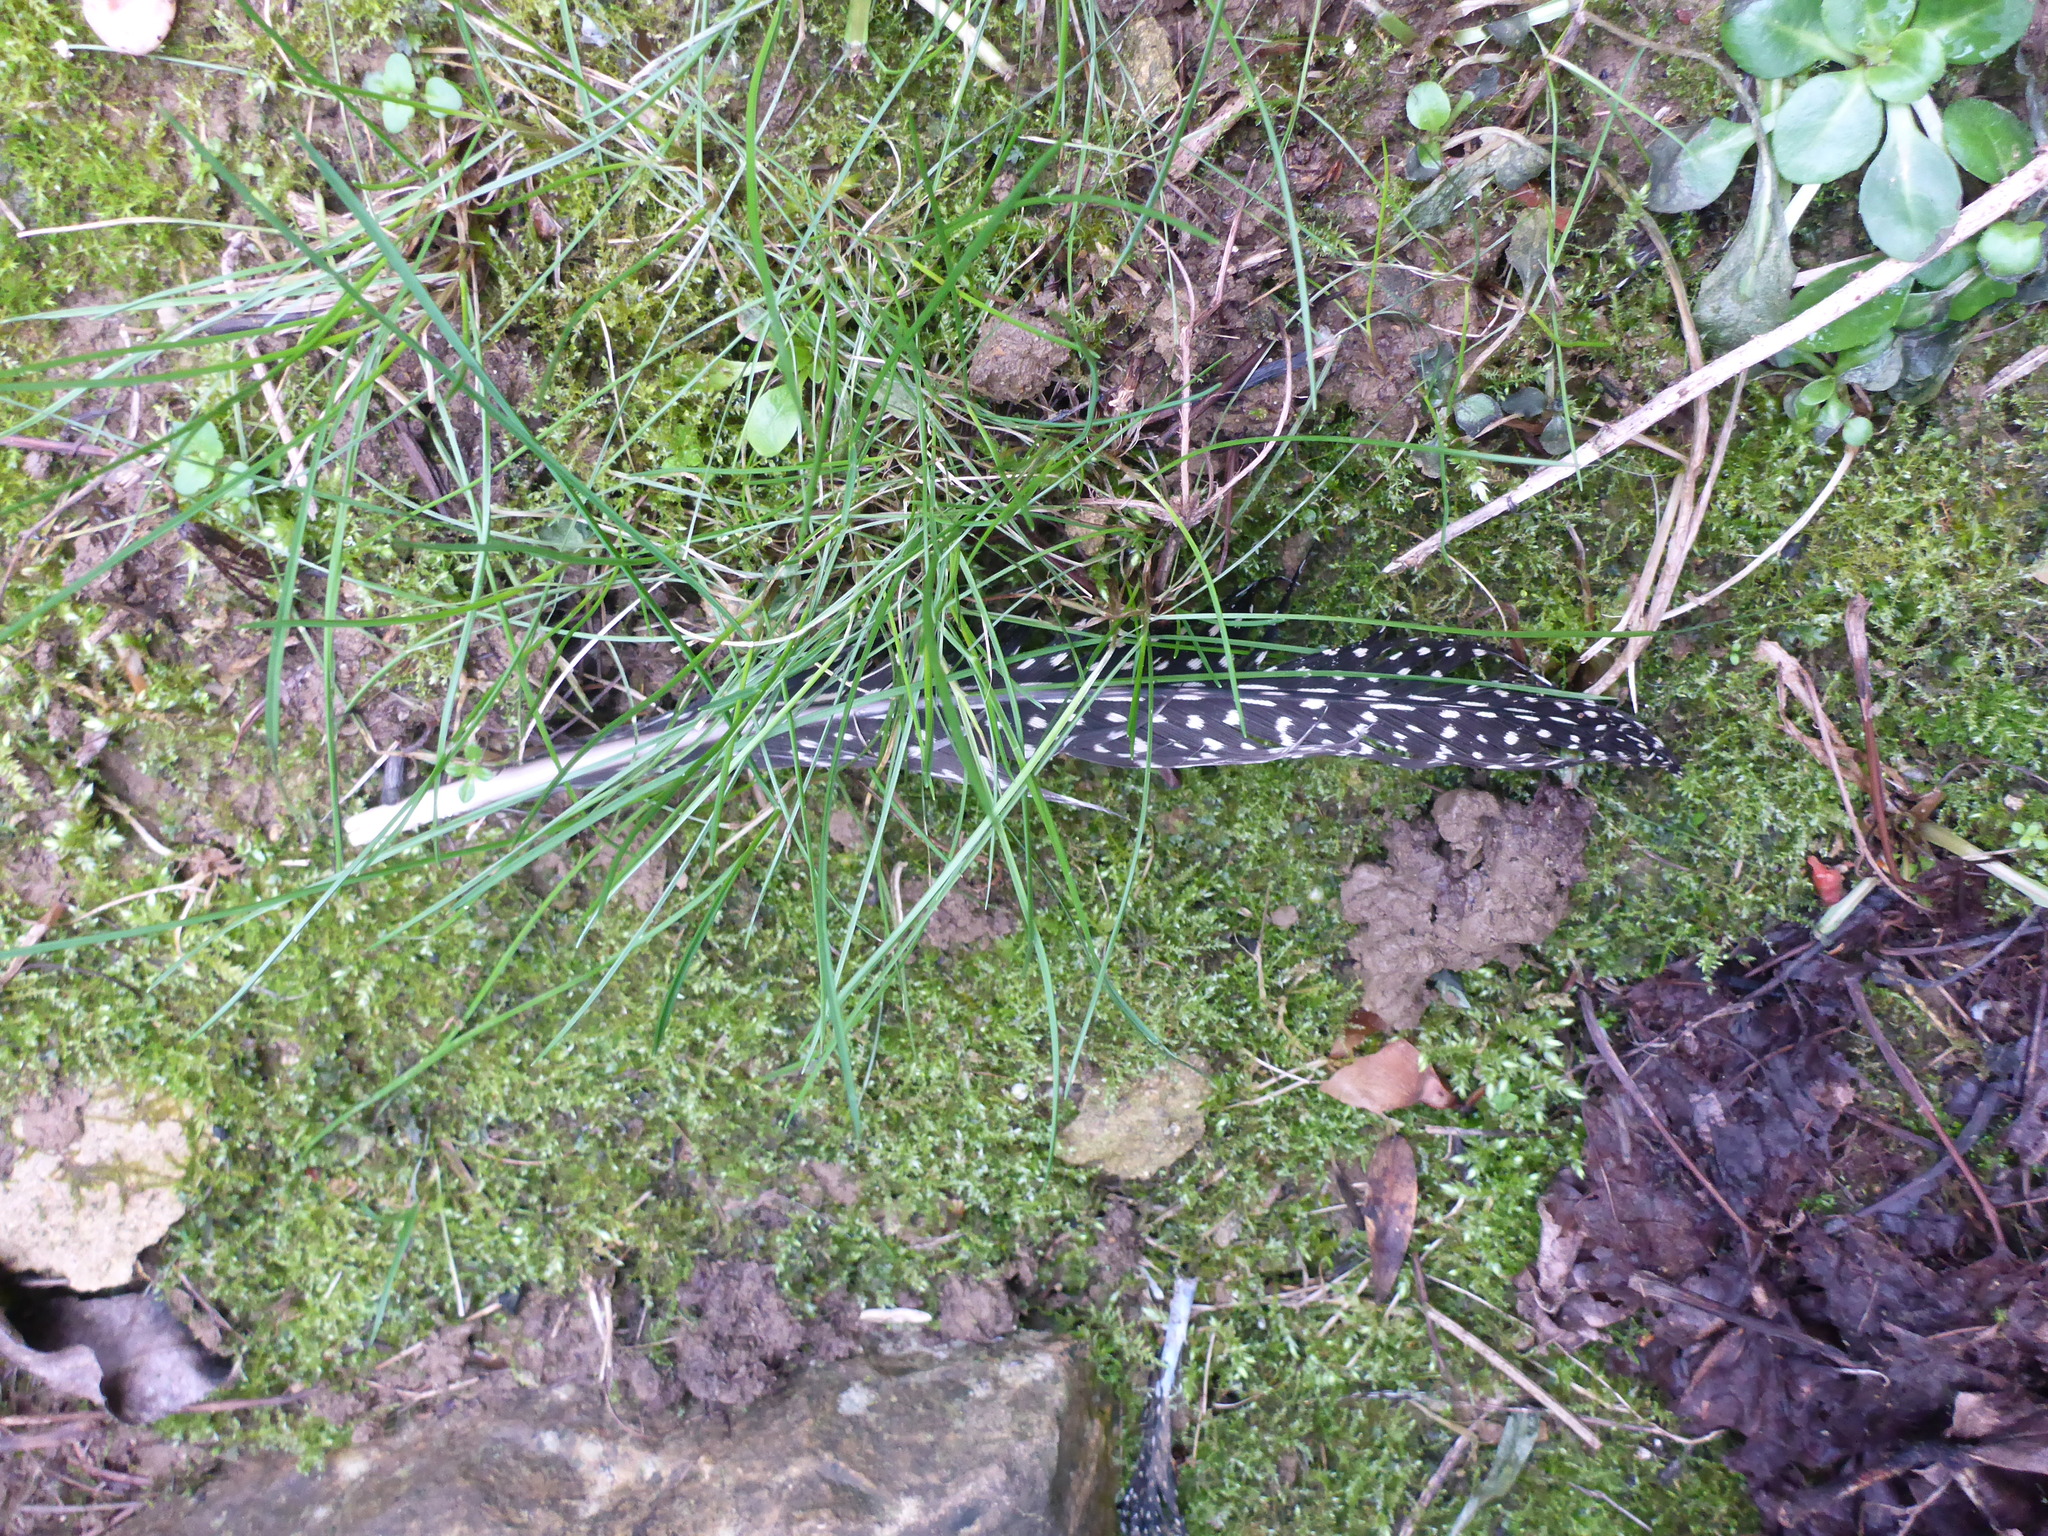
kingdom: Animalia
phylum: Chordata
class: Aves
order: Galliformes
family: Numididae
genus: Numida
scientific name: Numida meleagris
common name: Helmeted guineafowl
